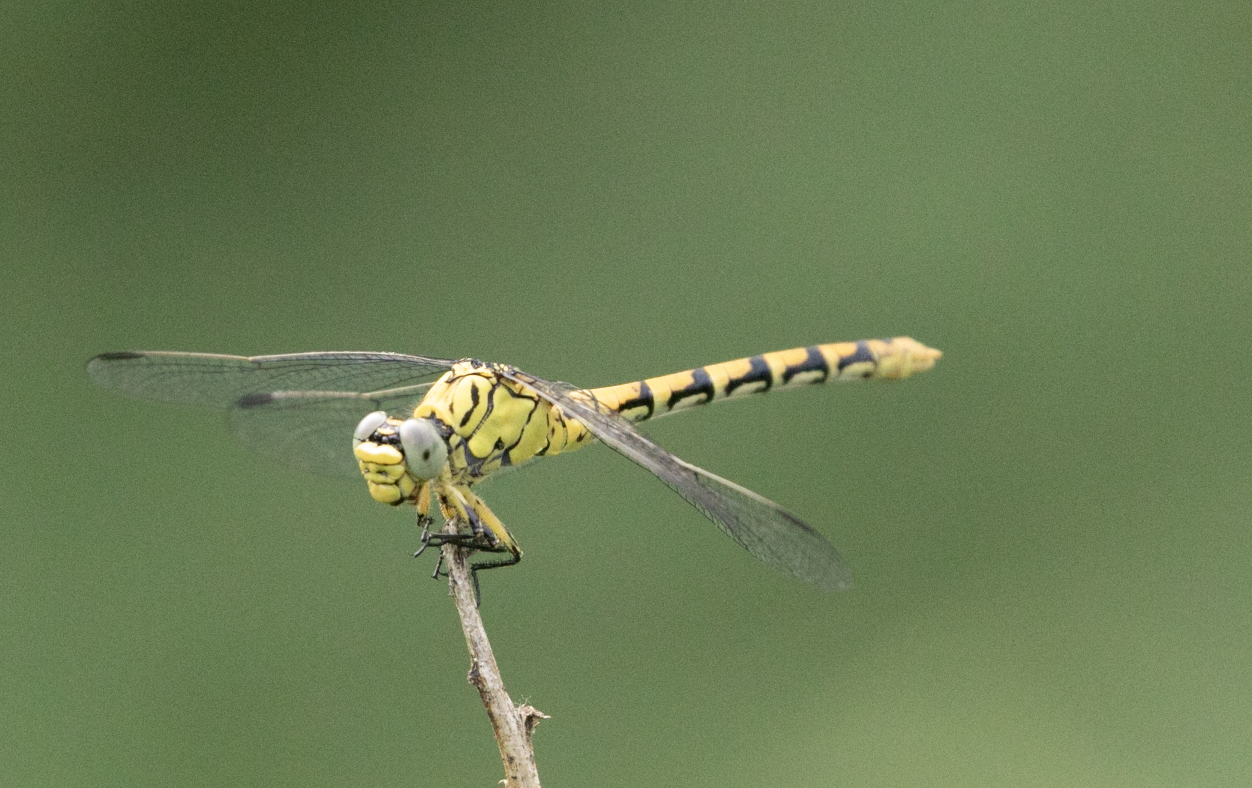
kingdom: Animalia
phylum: Arthropoda
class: Insecta
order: Odonata
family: Gomphidae
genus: Onychogomphus
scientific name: Onychogomphus forcipatus
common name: Small pincertail
